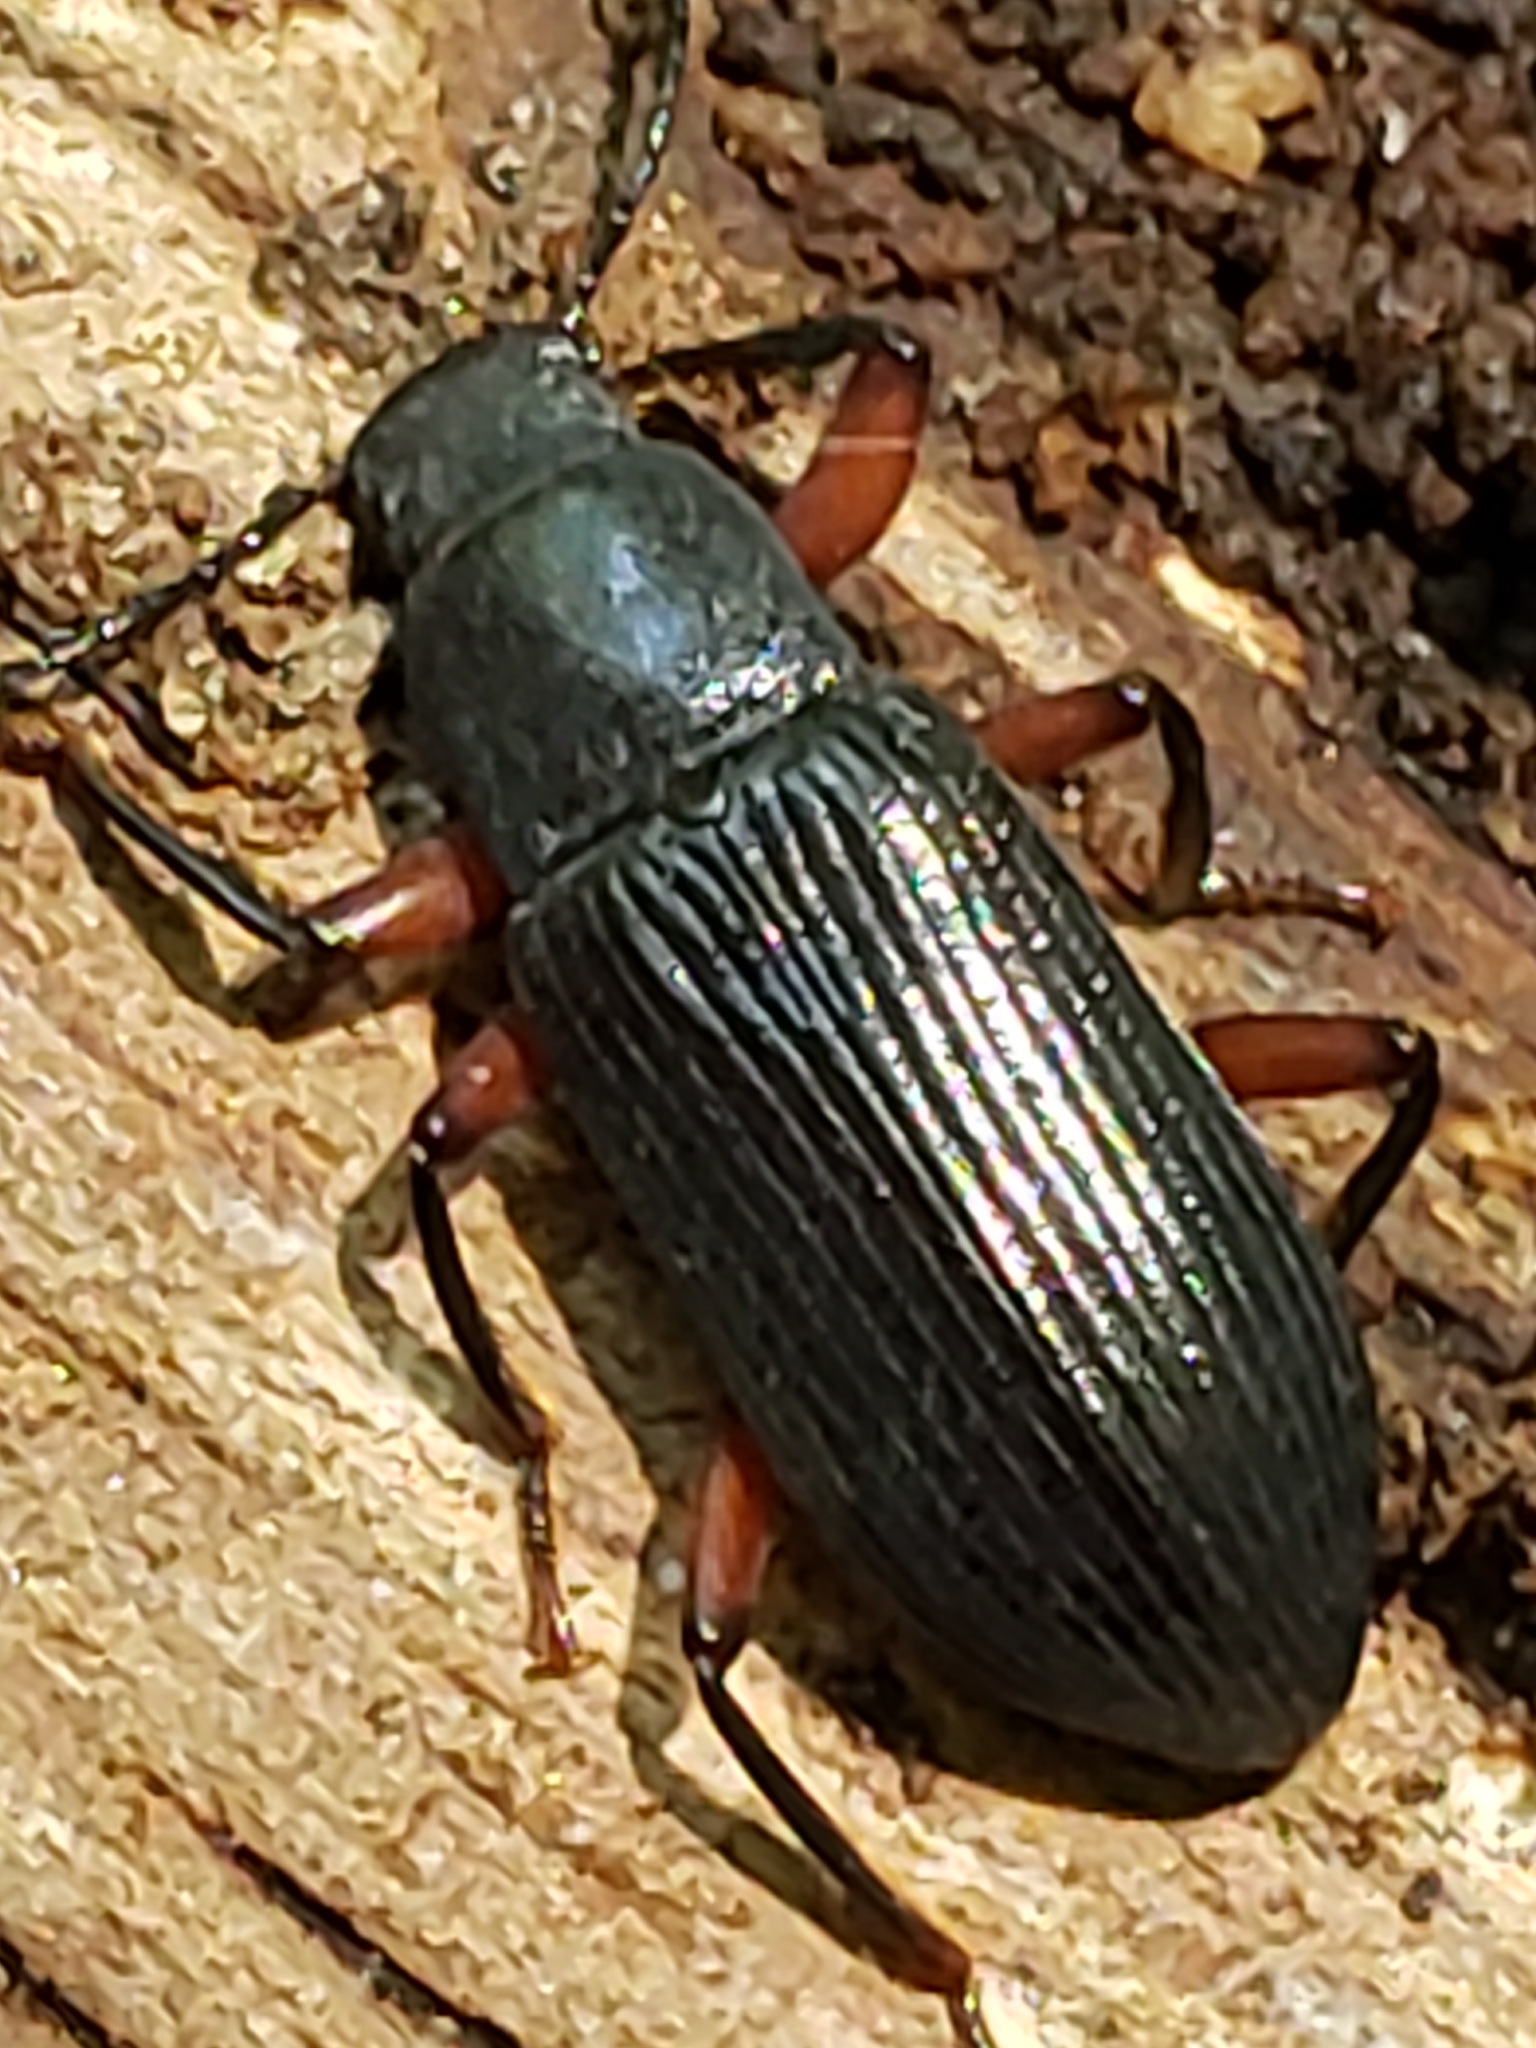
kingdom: Animalia
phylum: Arthropoda
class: Insecta
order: Coleoptera
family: Tenebrionidae
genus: Xylopinus
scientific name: Xylopinus saperdoides
